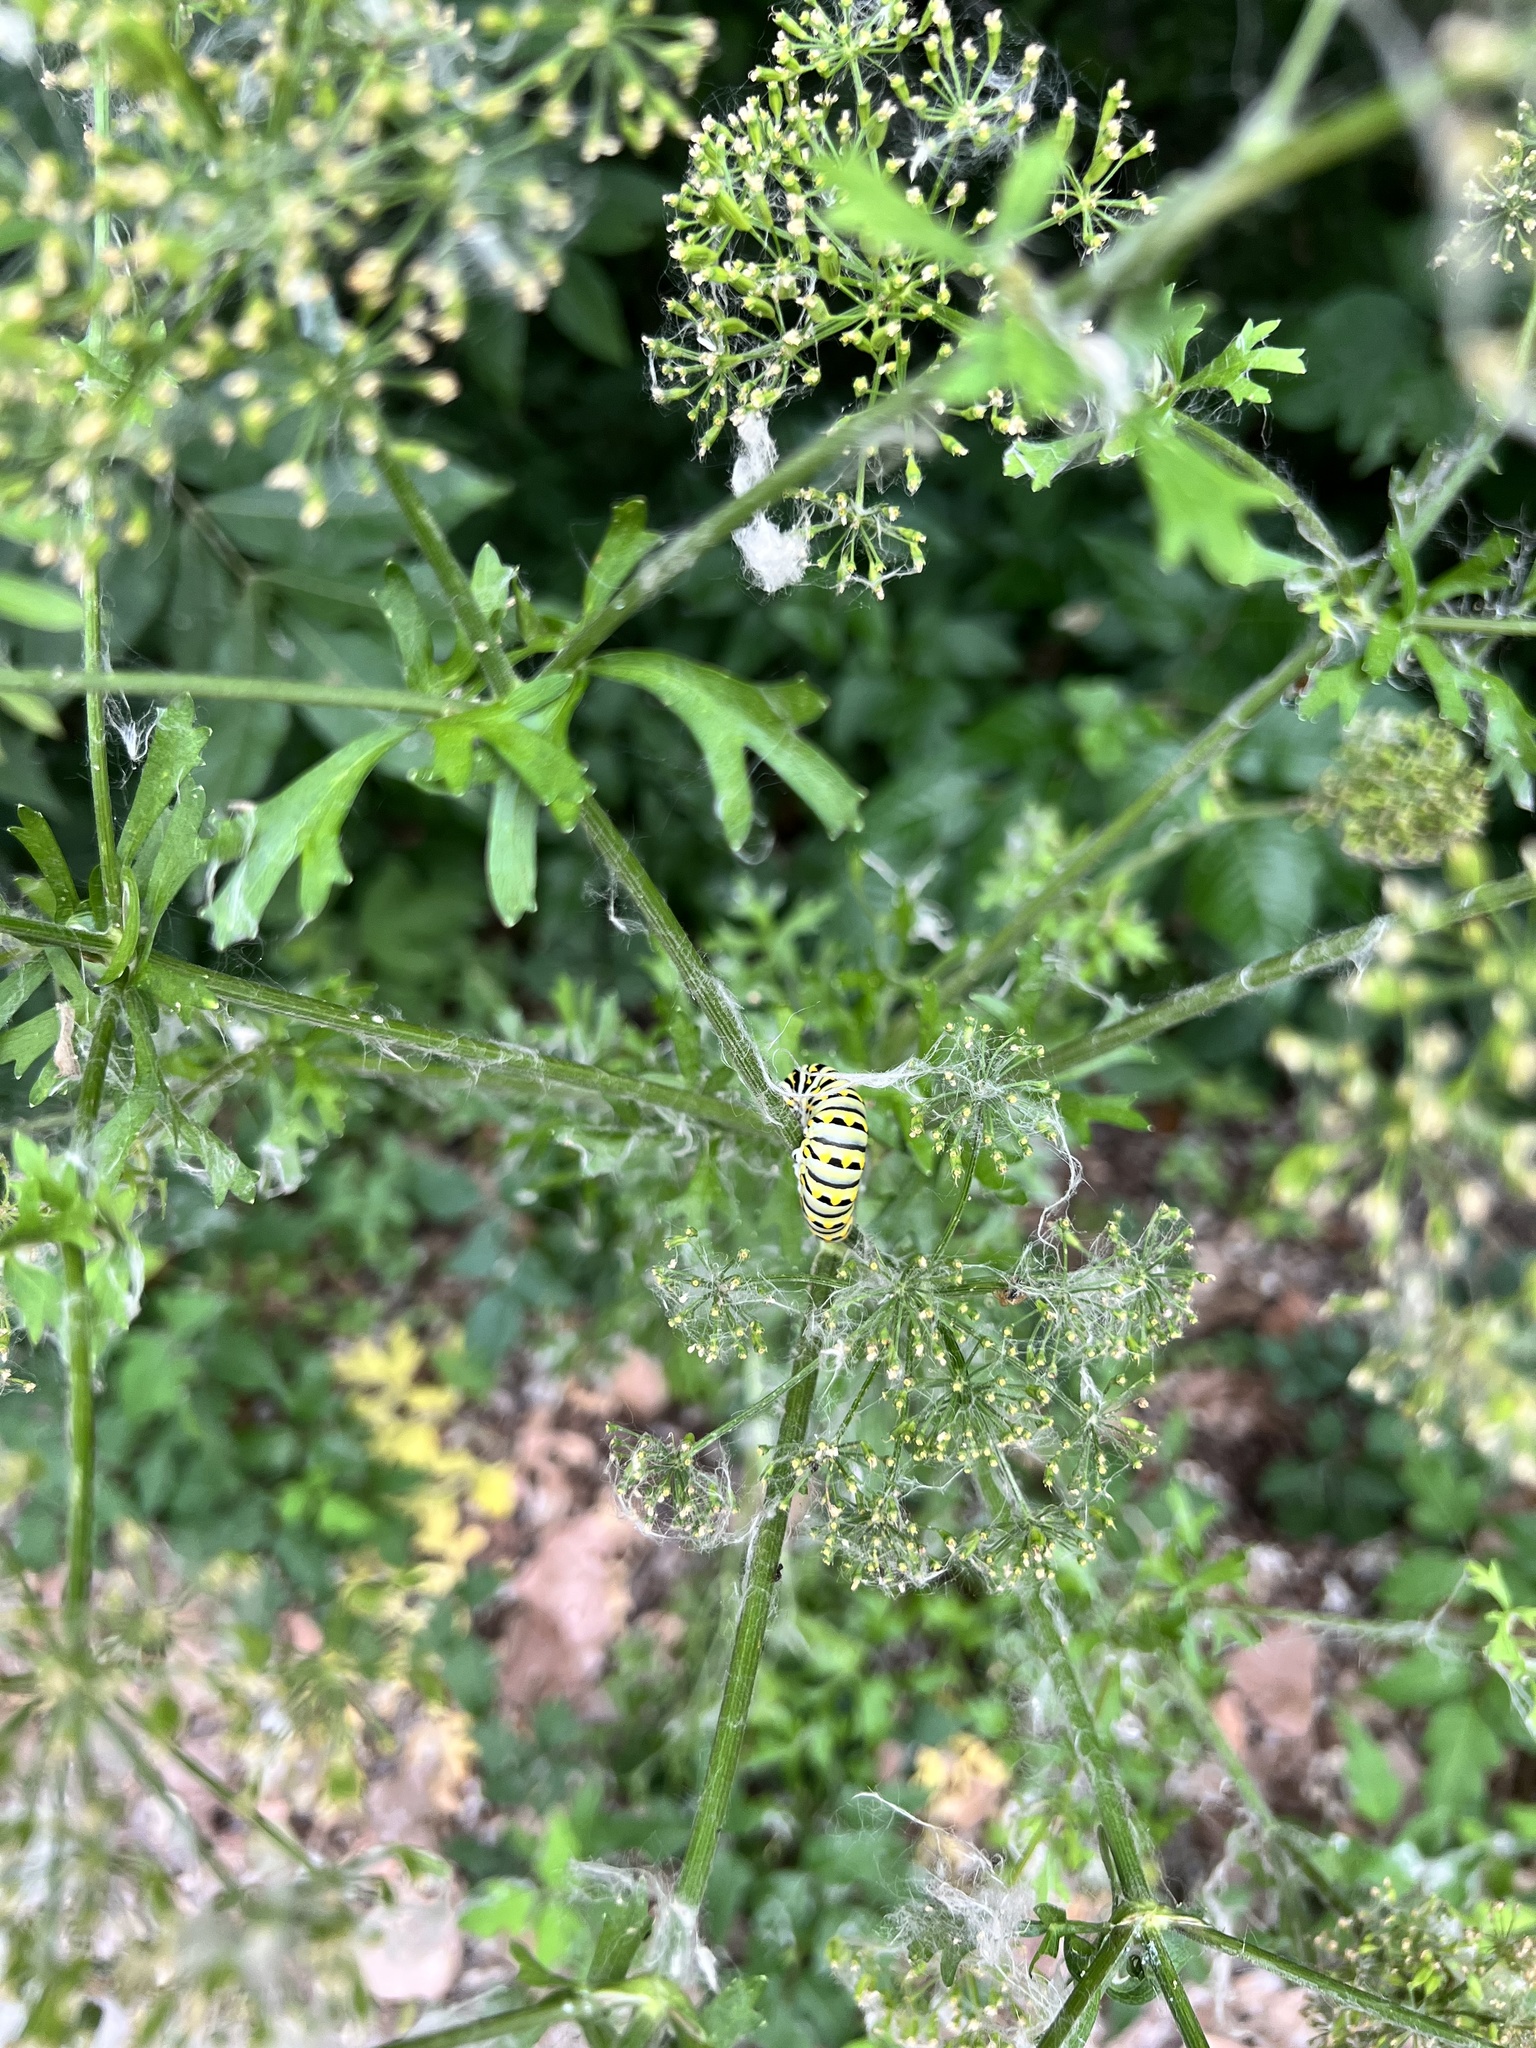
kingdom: Animalia
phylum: Arthropoda
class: Insecta
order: Lepidoptera
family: Papilionidae
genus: Papilio
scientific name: Papilio polyxenes
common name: Black swallowtail
